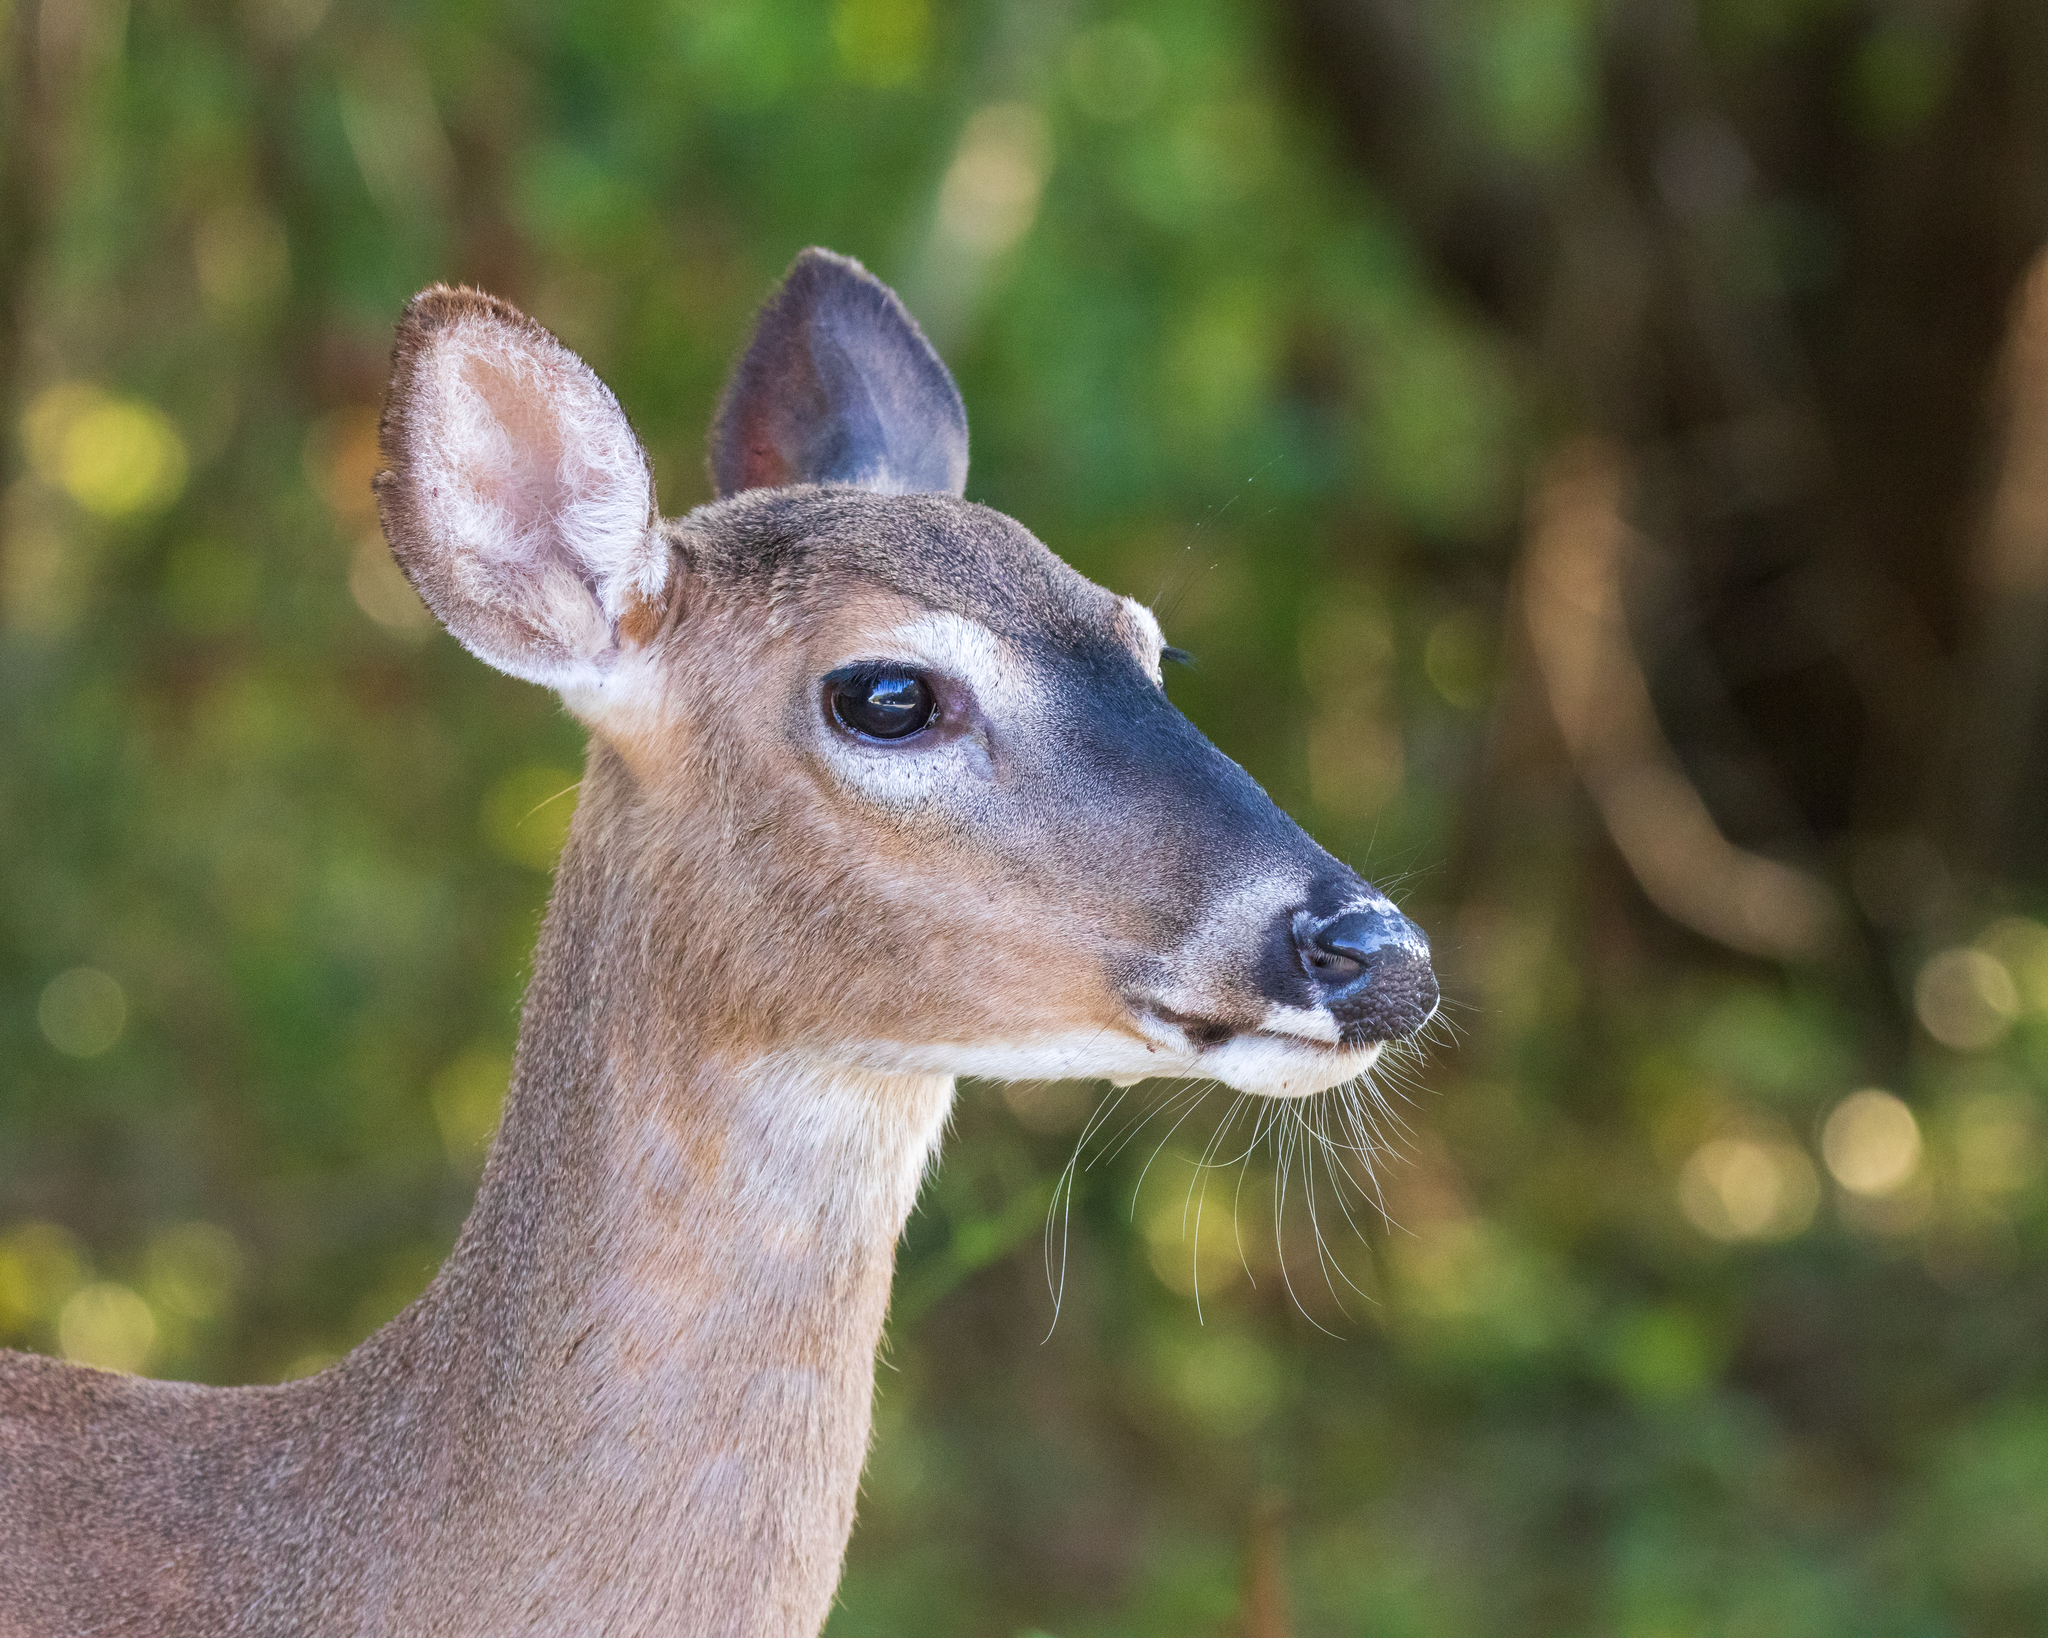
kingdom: Animalia
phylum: Chordata
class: Mammalia
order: Artiodactyla
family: Cervidae
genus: Odocoileus
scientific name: Odocoileus virginianus
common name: White-tailed deer
